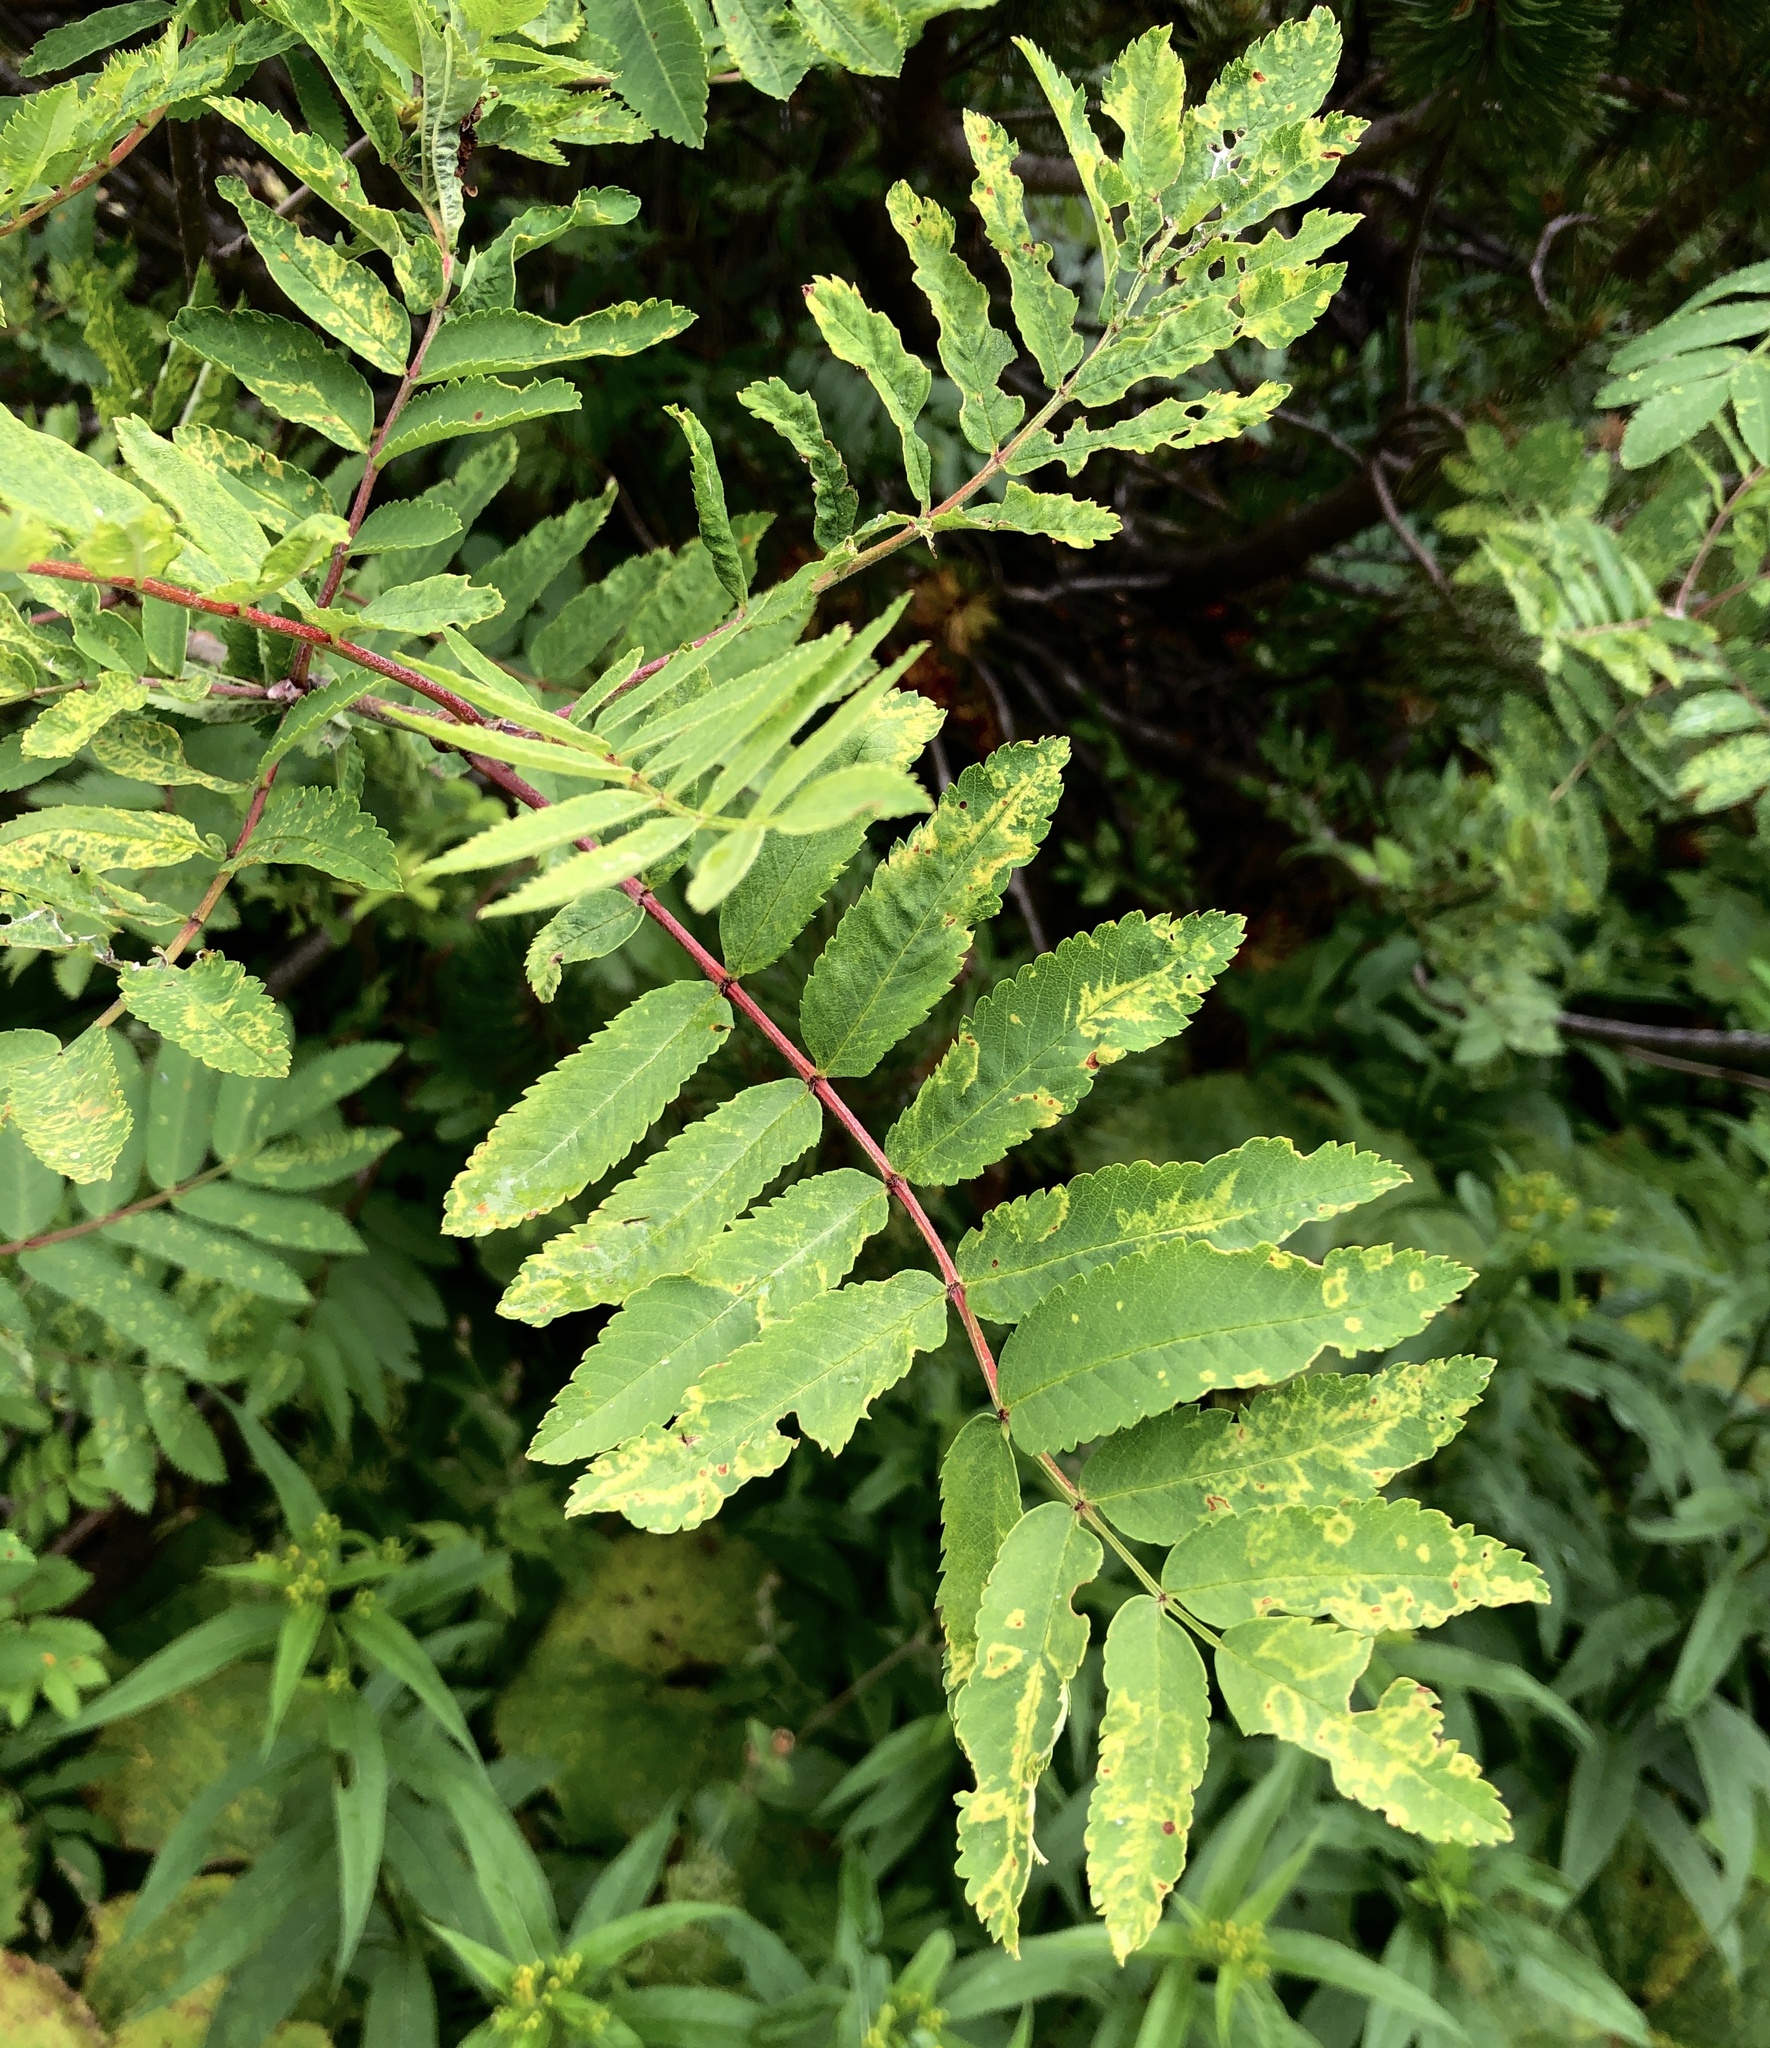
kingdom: Plantae
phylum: Tracheophyta
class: Magnoliopsida
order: Rosales
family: Rosaceae
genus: Sorbus
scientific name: Sorbus aucuparia
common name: Rowan
